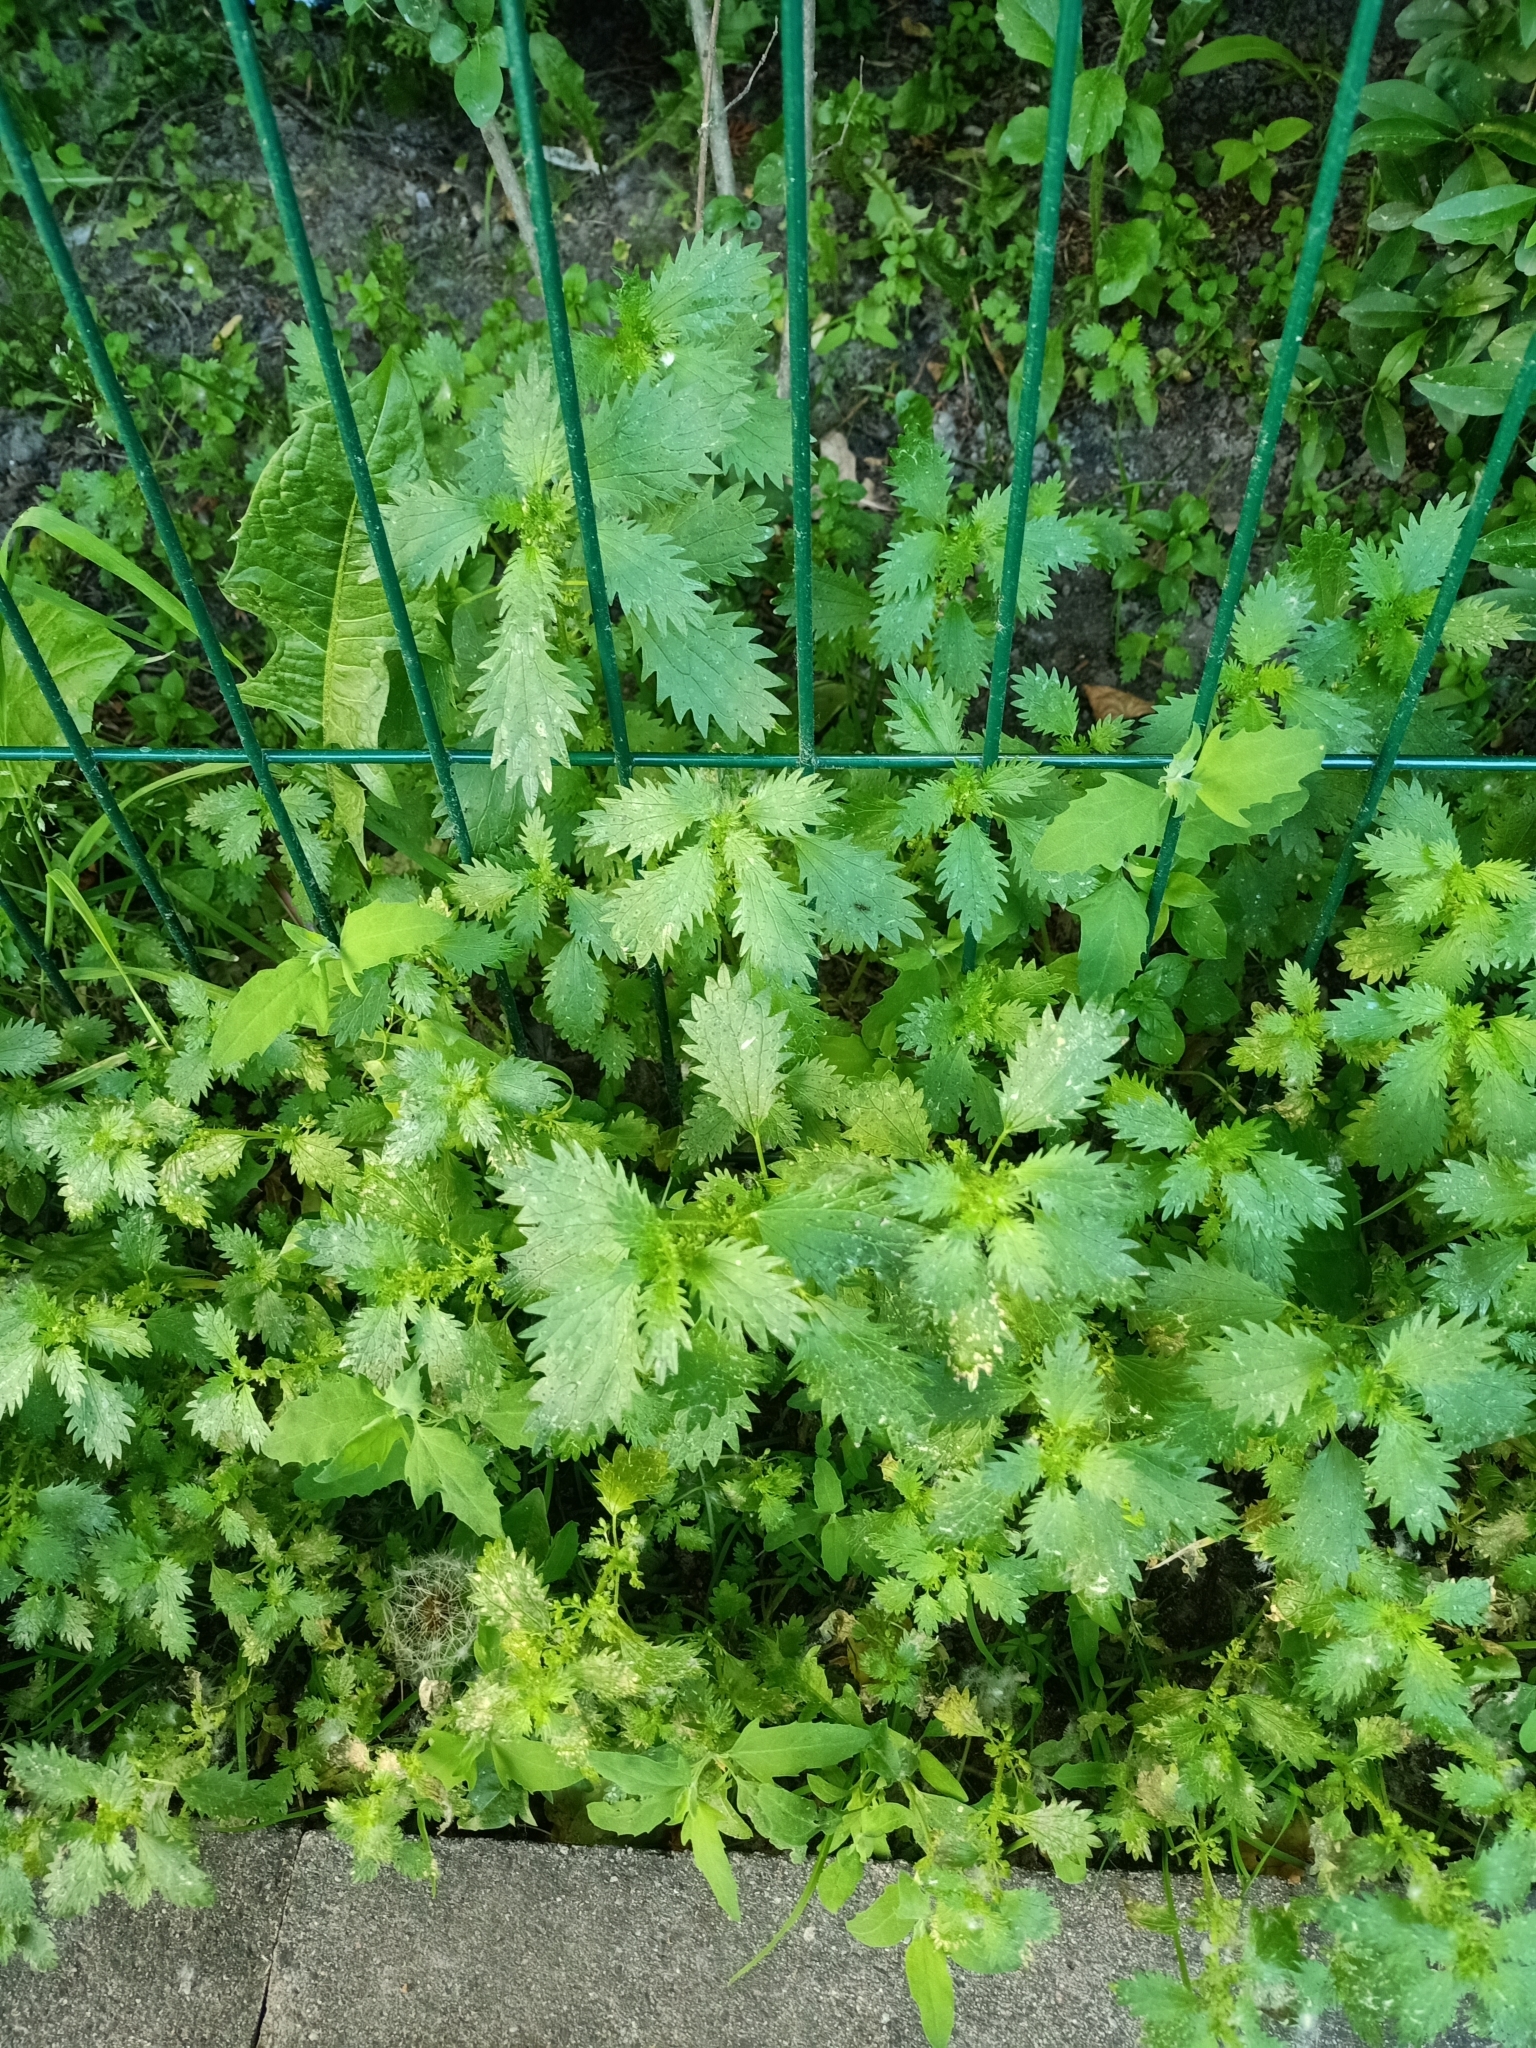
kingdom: Plantae
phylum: Tracheophyta
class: Magnoliopsida
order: Rosales
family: Urticaceae
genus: Urtica
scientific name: Urtica urens
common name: Dwarf nettle
